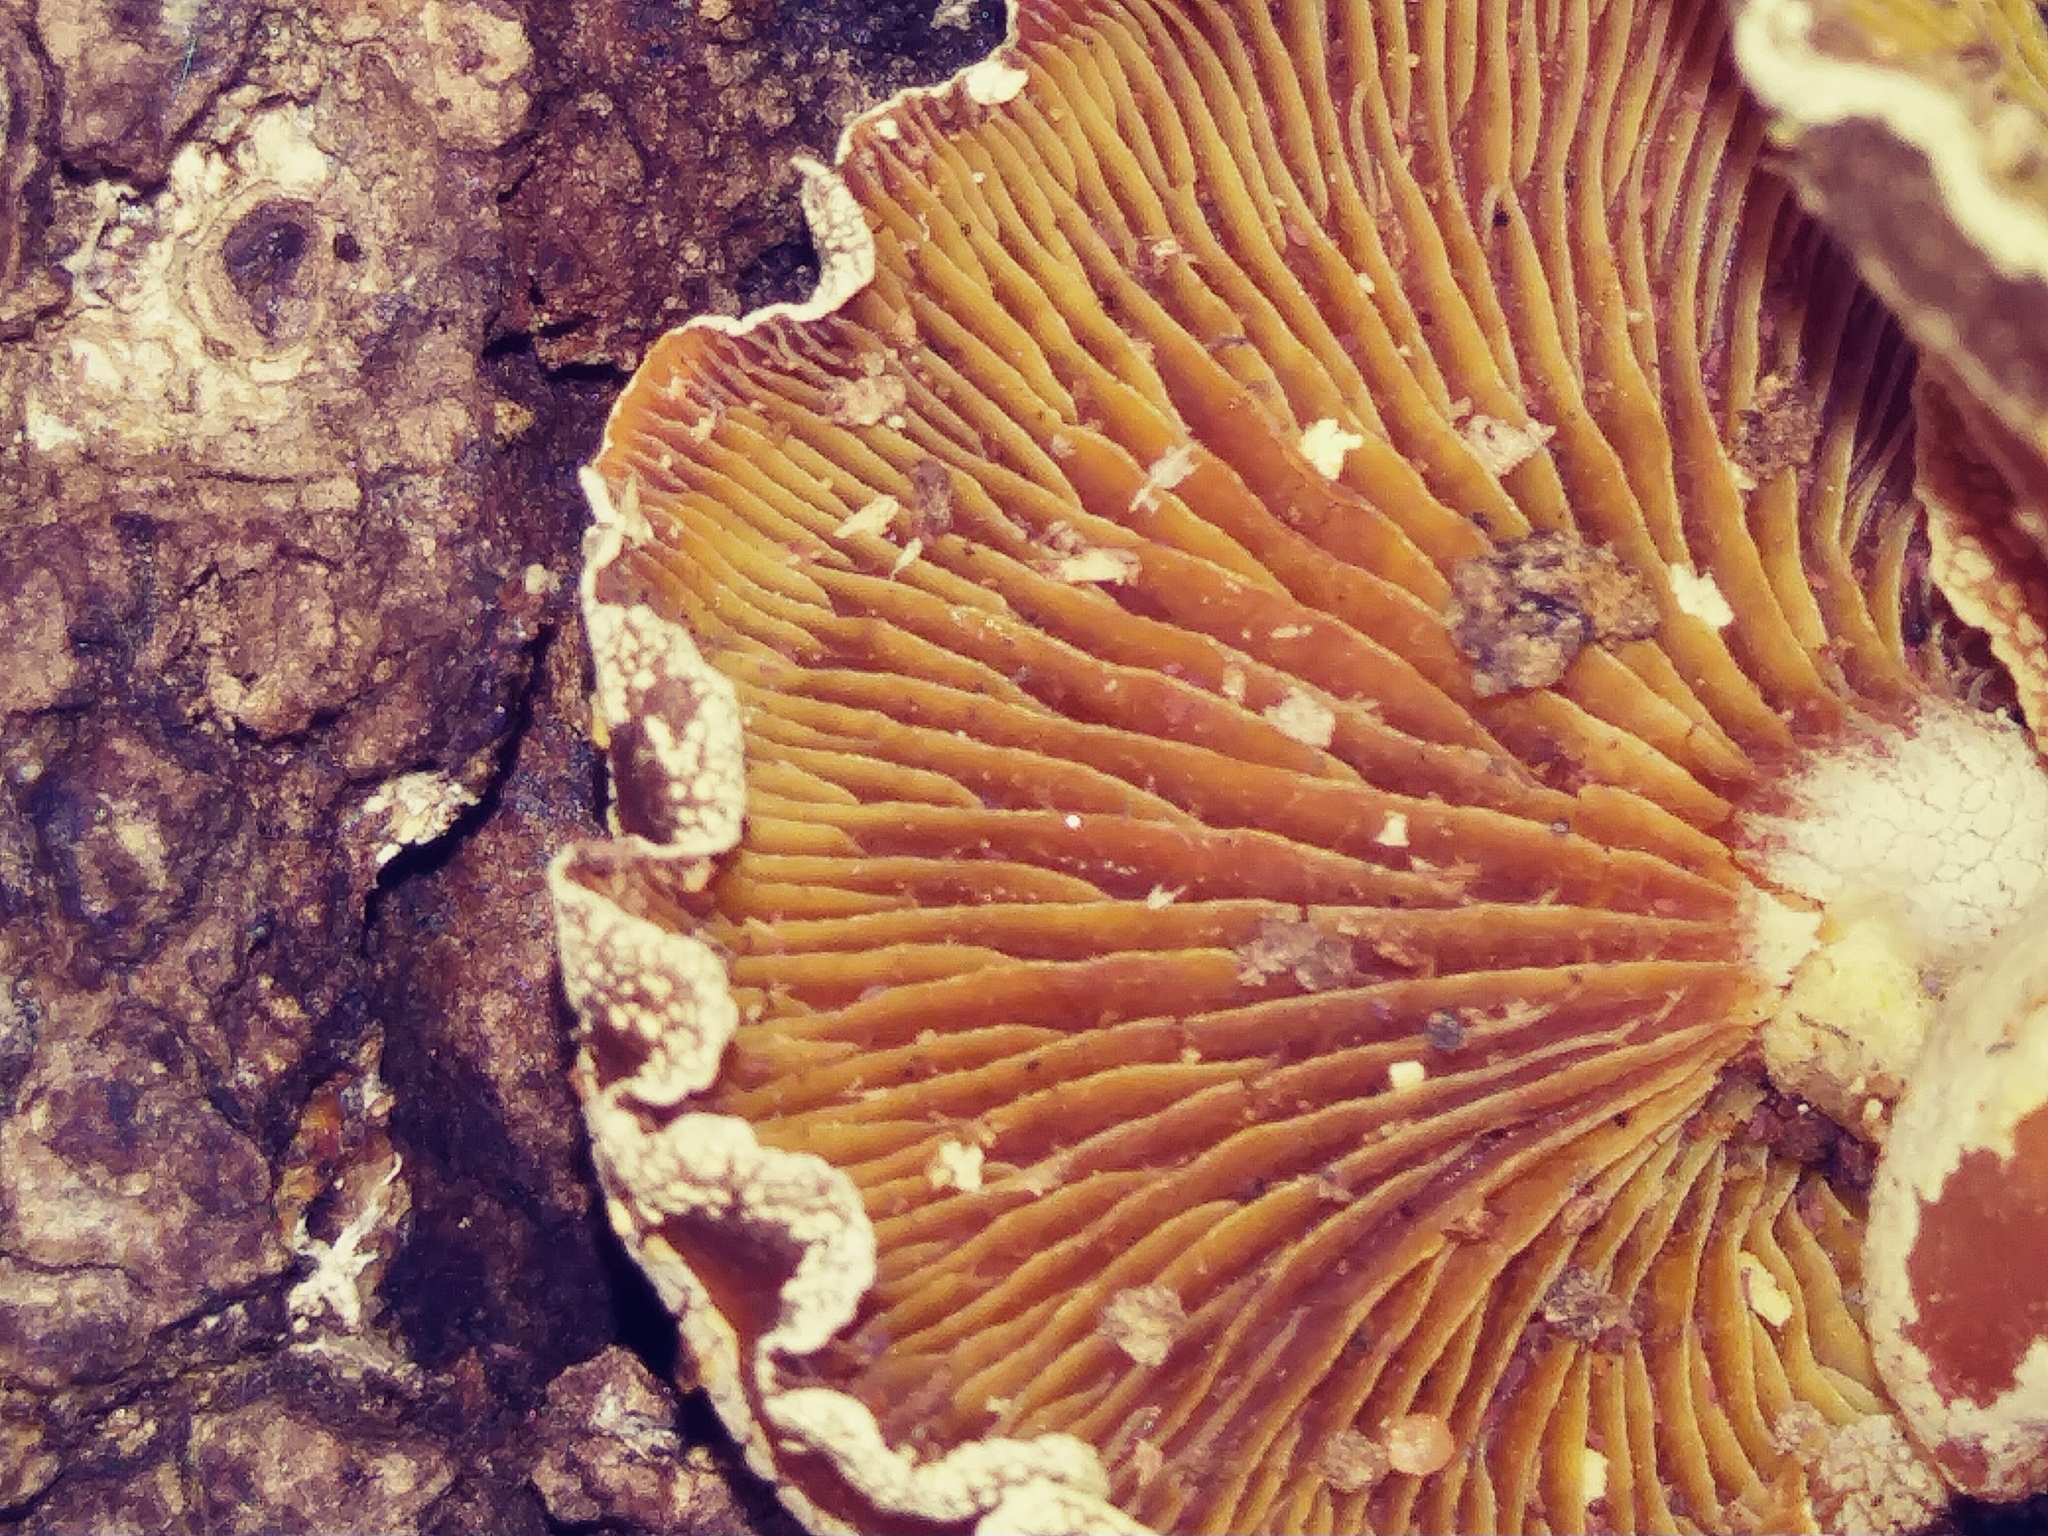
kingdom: Fungi
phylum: Basidiomycota
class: Agaricomycetes
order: Agaricales
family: Mycenaceae
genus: Panellus
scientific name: Panellus stipticus
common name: Bitter oysterling
